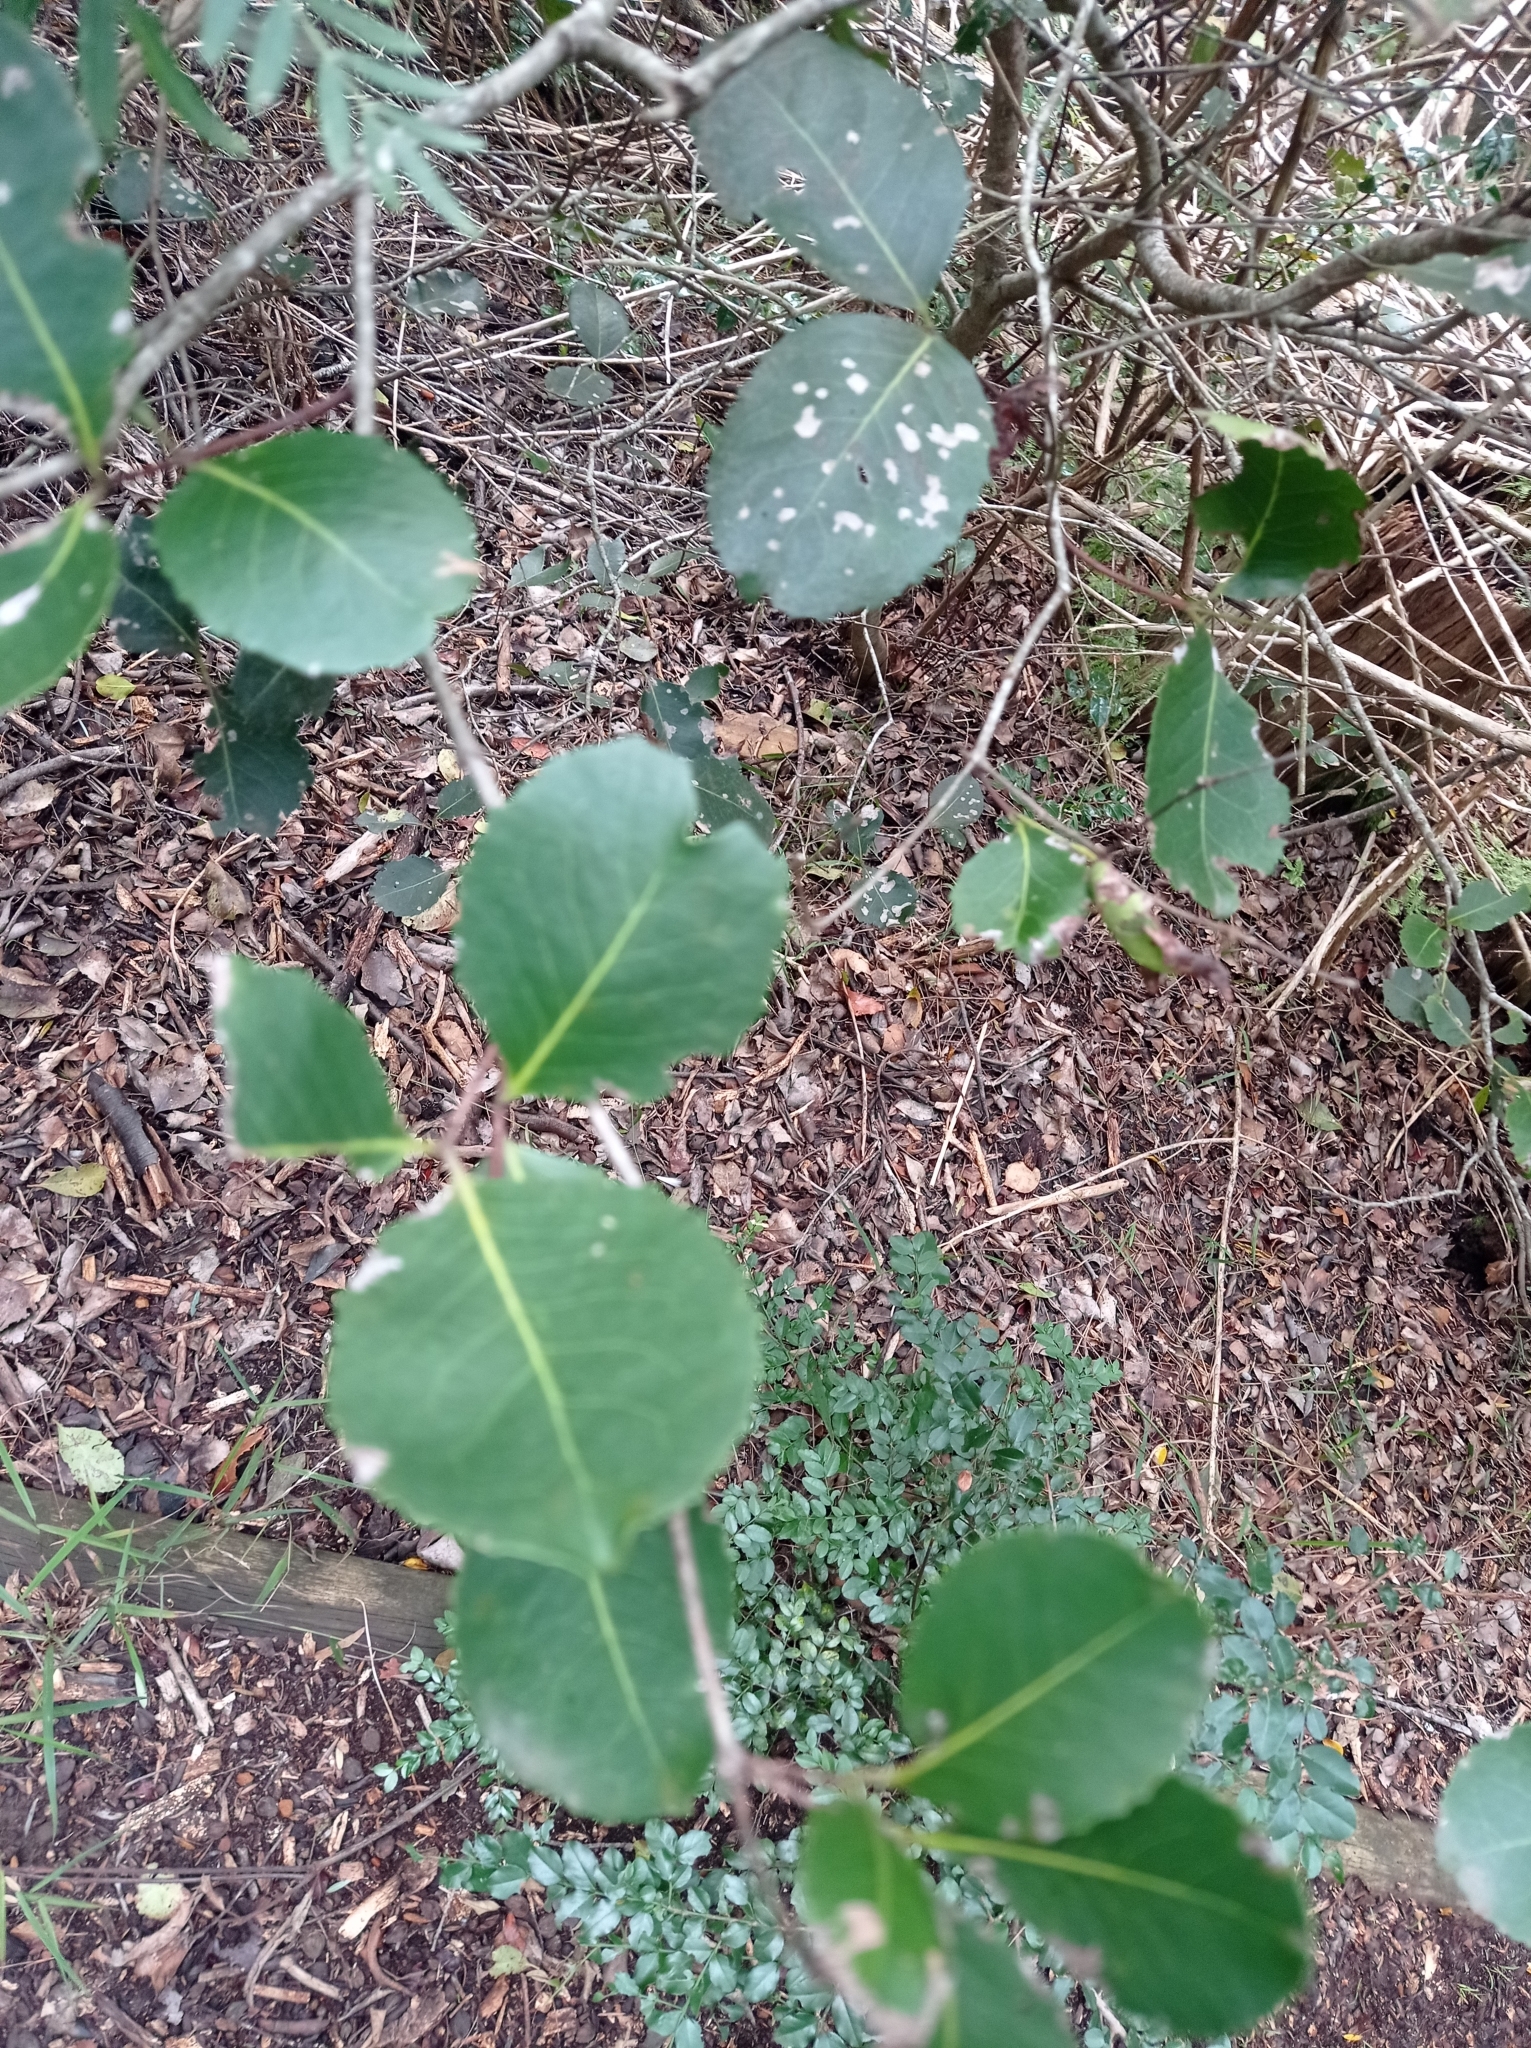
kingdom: Plantae
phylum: Tracheophyta
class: Magnoliopsida
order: Celastrales
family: Celastraceae
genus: Cassine
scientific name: Cassine peragua
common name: Cape saffron
